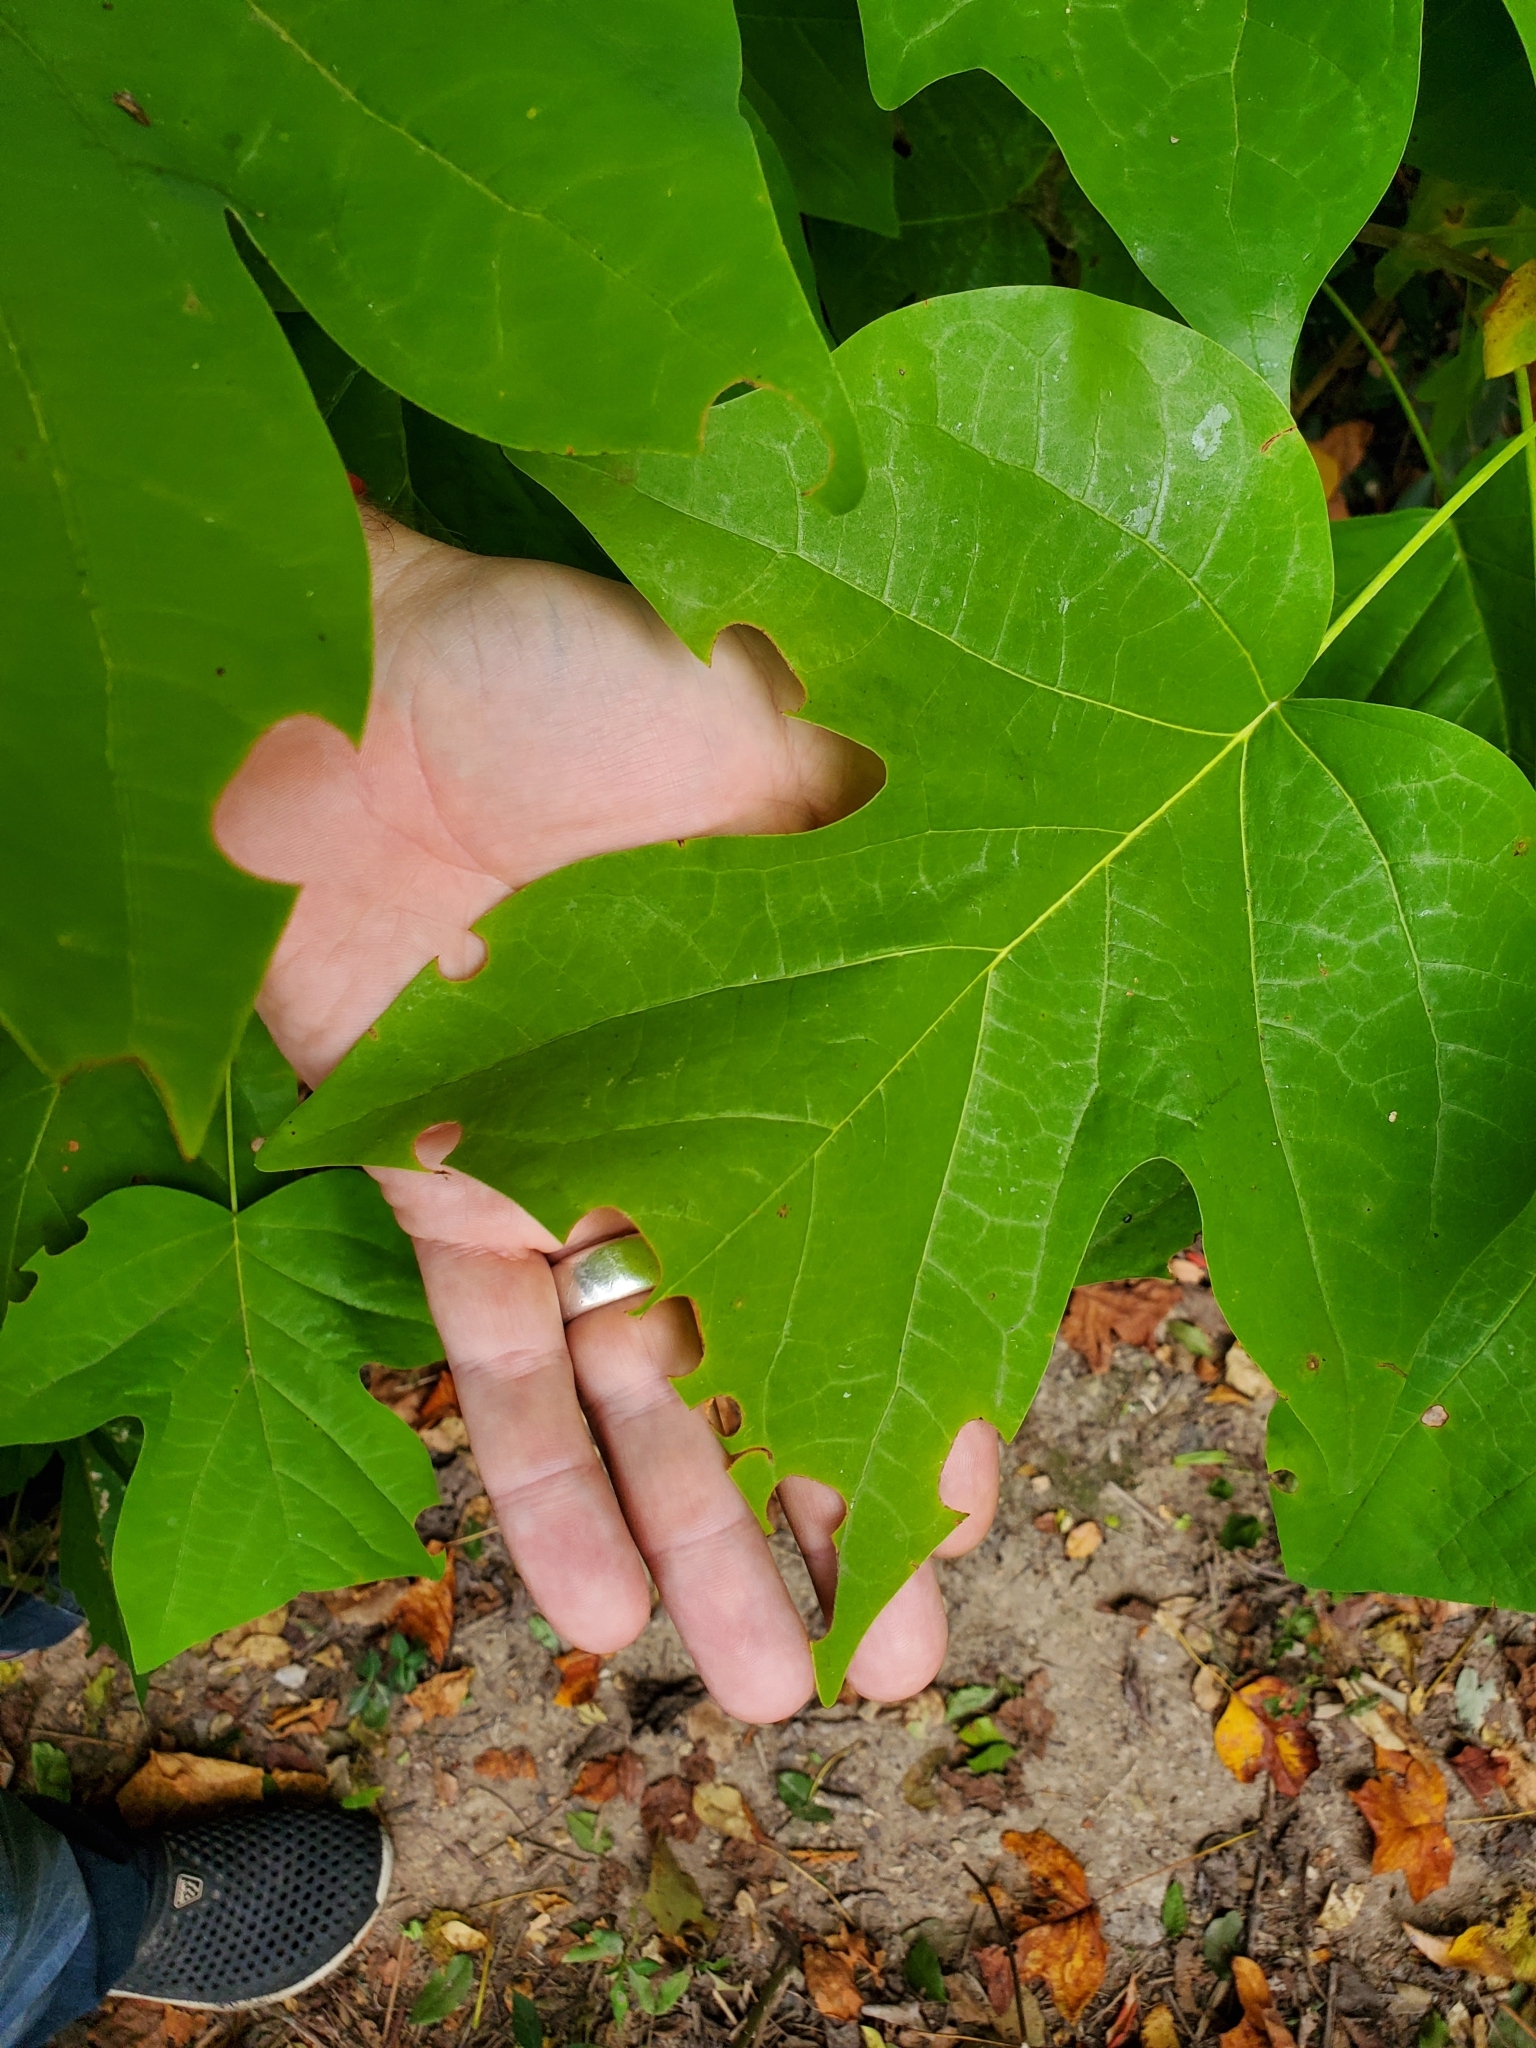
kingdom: Plantae
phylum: Tracheophyta
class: Magnoliopsida
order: Magnoliales
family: Magnoliaceae
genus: Liriodendron
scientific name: Liriodendron tulipifera
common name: Tulip tree
